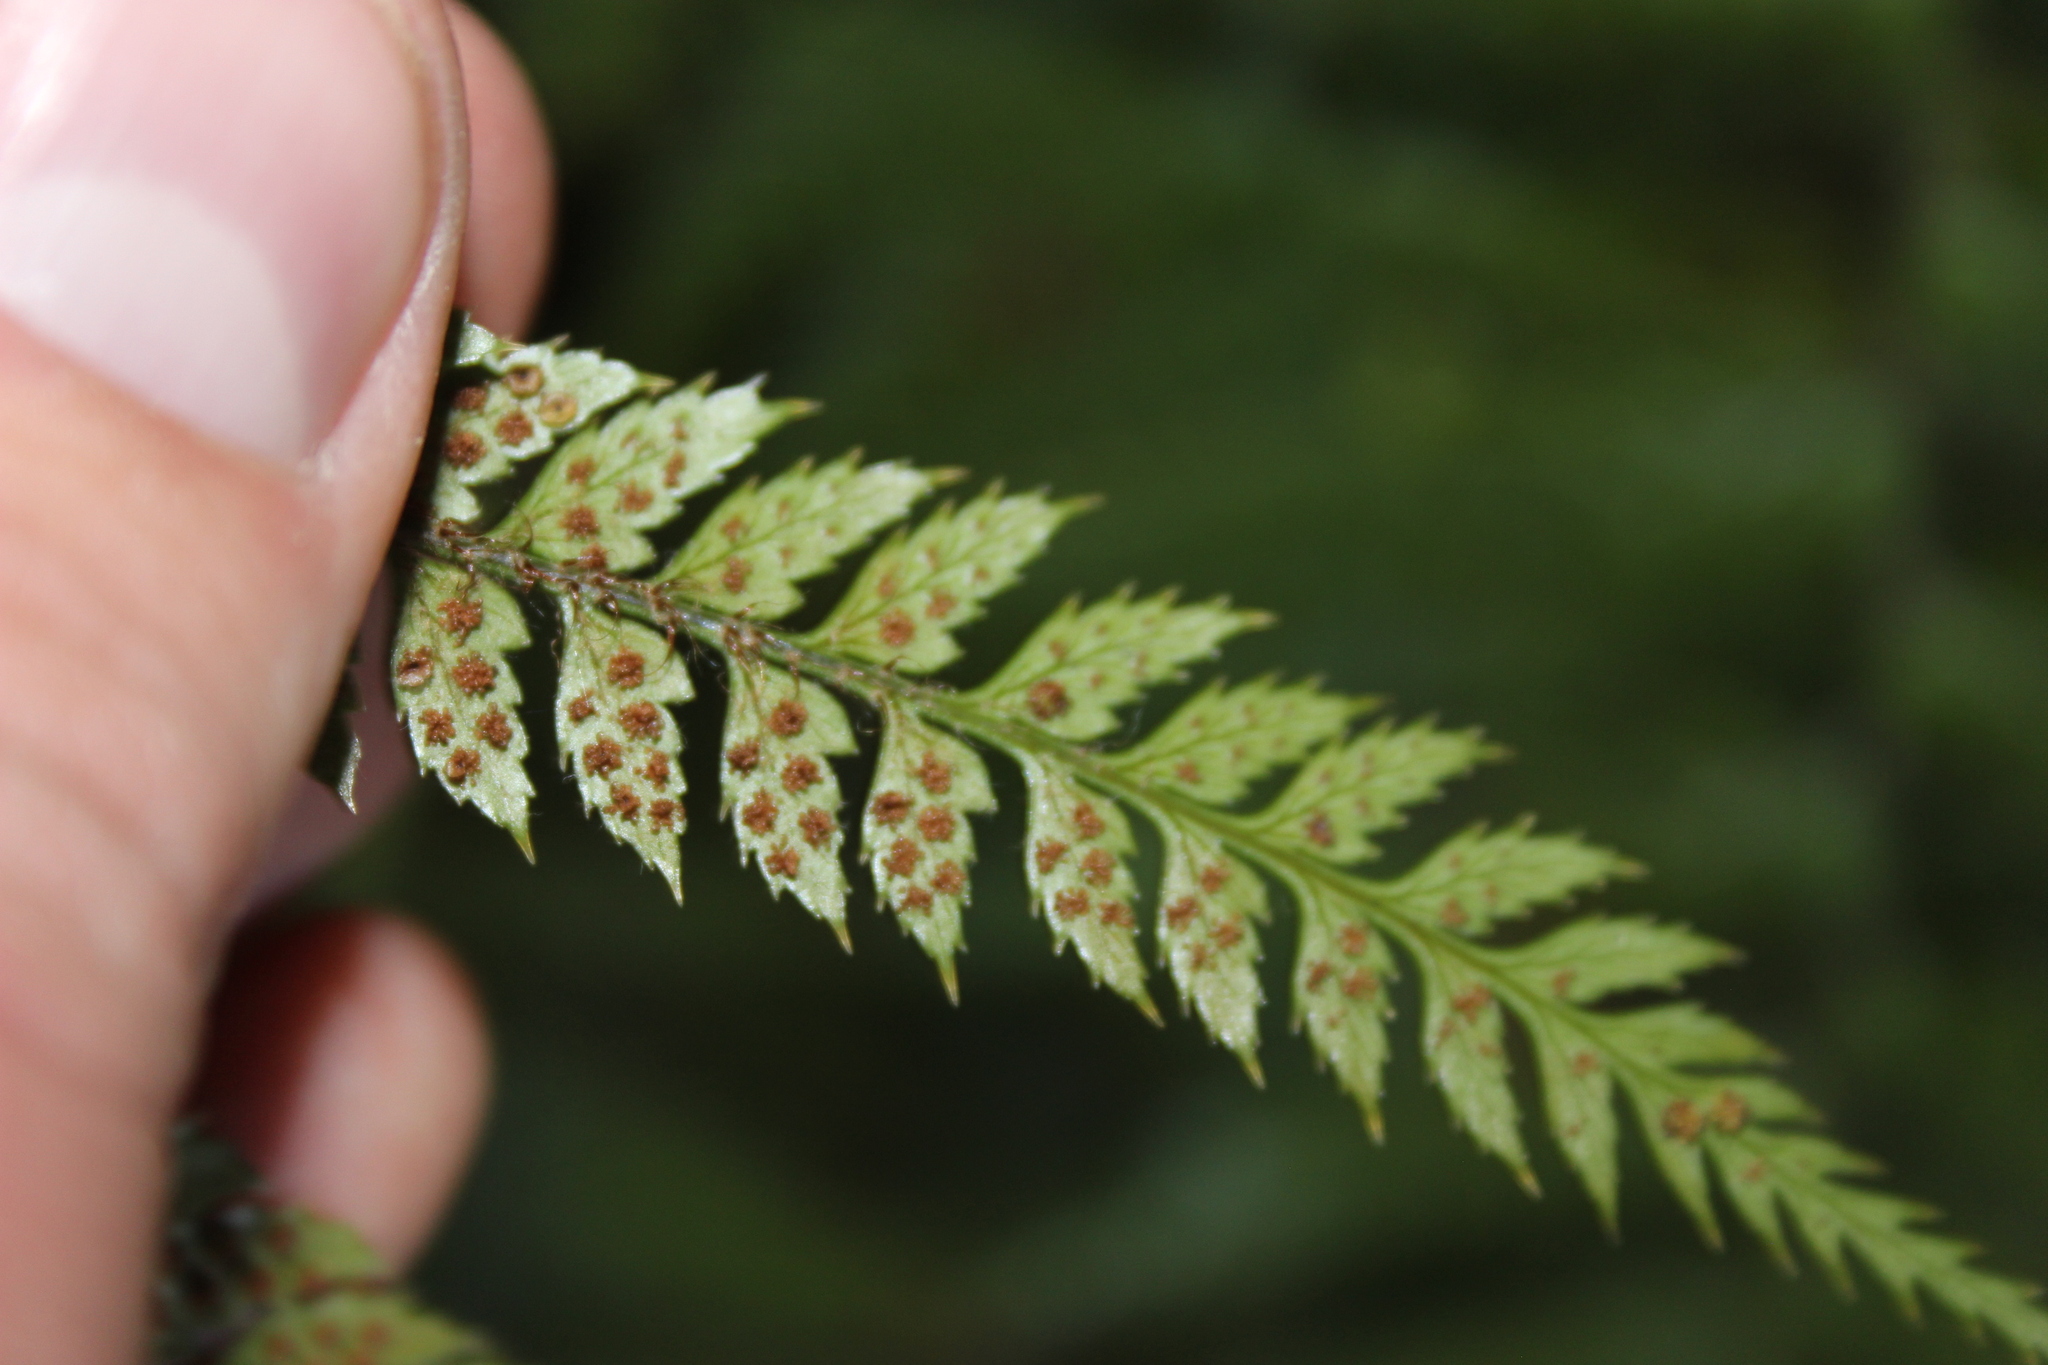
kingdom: Plantae
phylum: Tracheophyta
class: Polypodiopsida
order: Polypodiales
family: Dryopteridaceae
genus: Polystichum
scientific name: Polystichum vestitum
